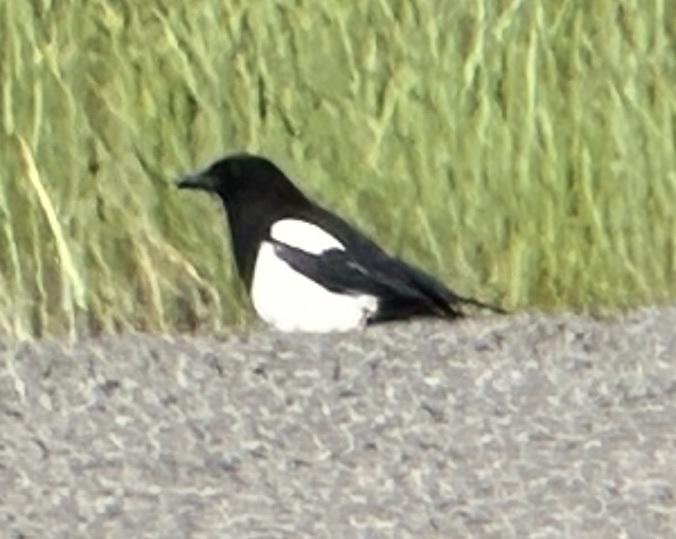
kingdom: Animalia
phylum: Chordata
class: Aves
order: Passeriformes
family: Corvidae
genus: Pica
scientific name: Pica hudsonia
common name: Black-billed magpie
